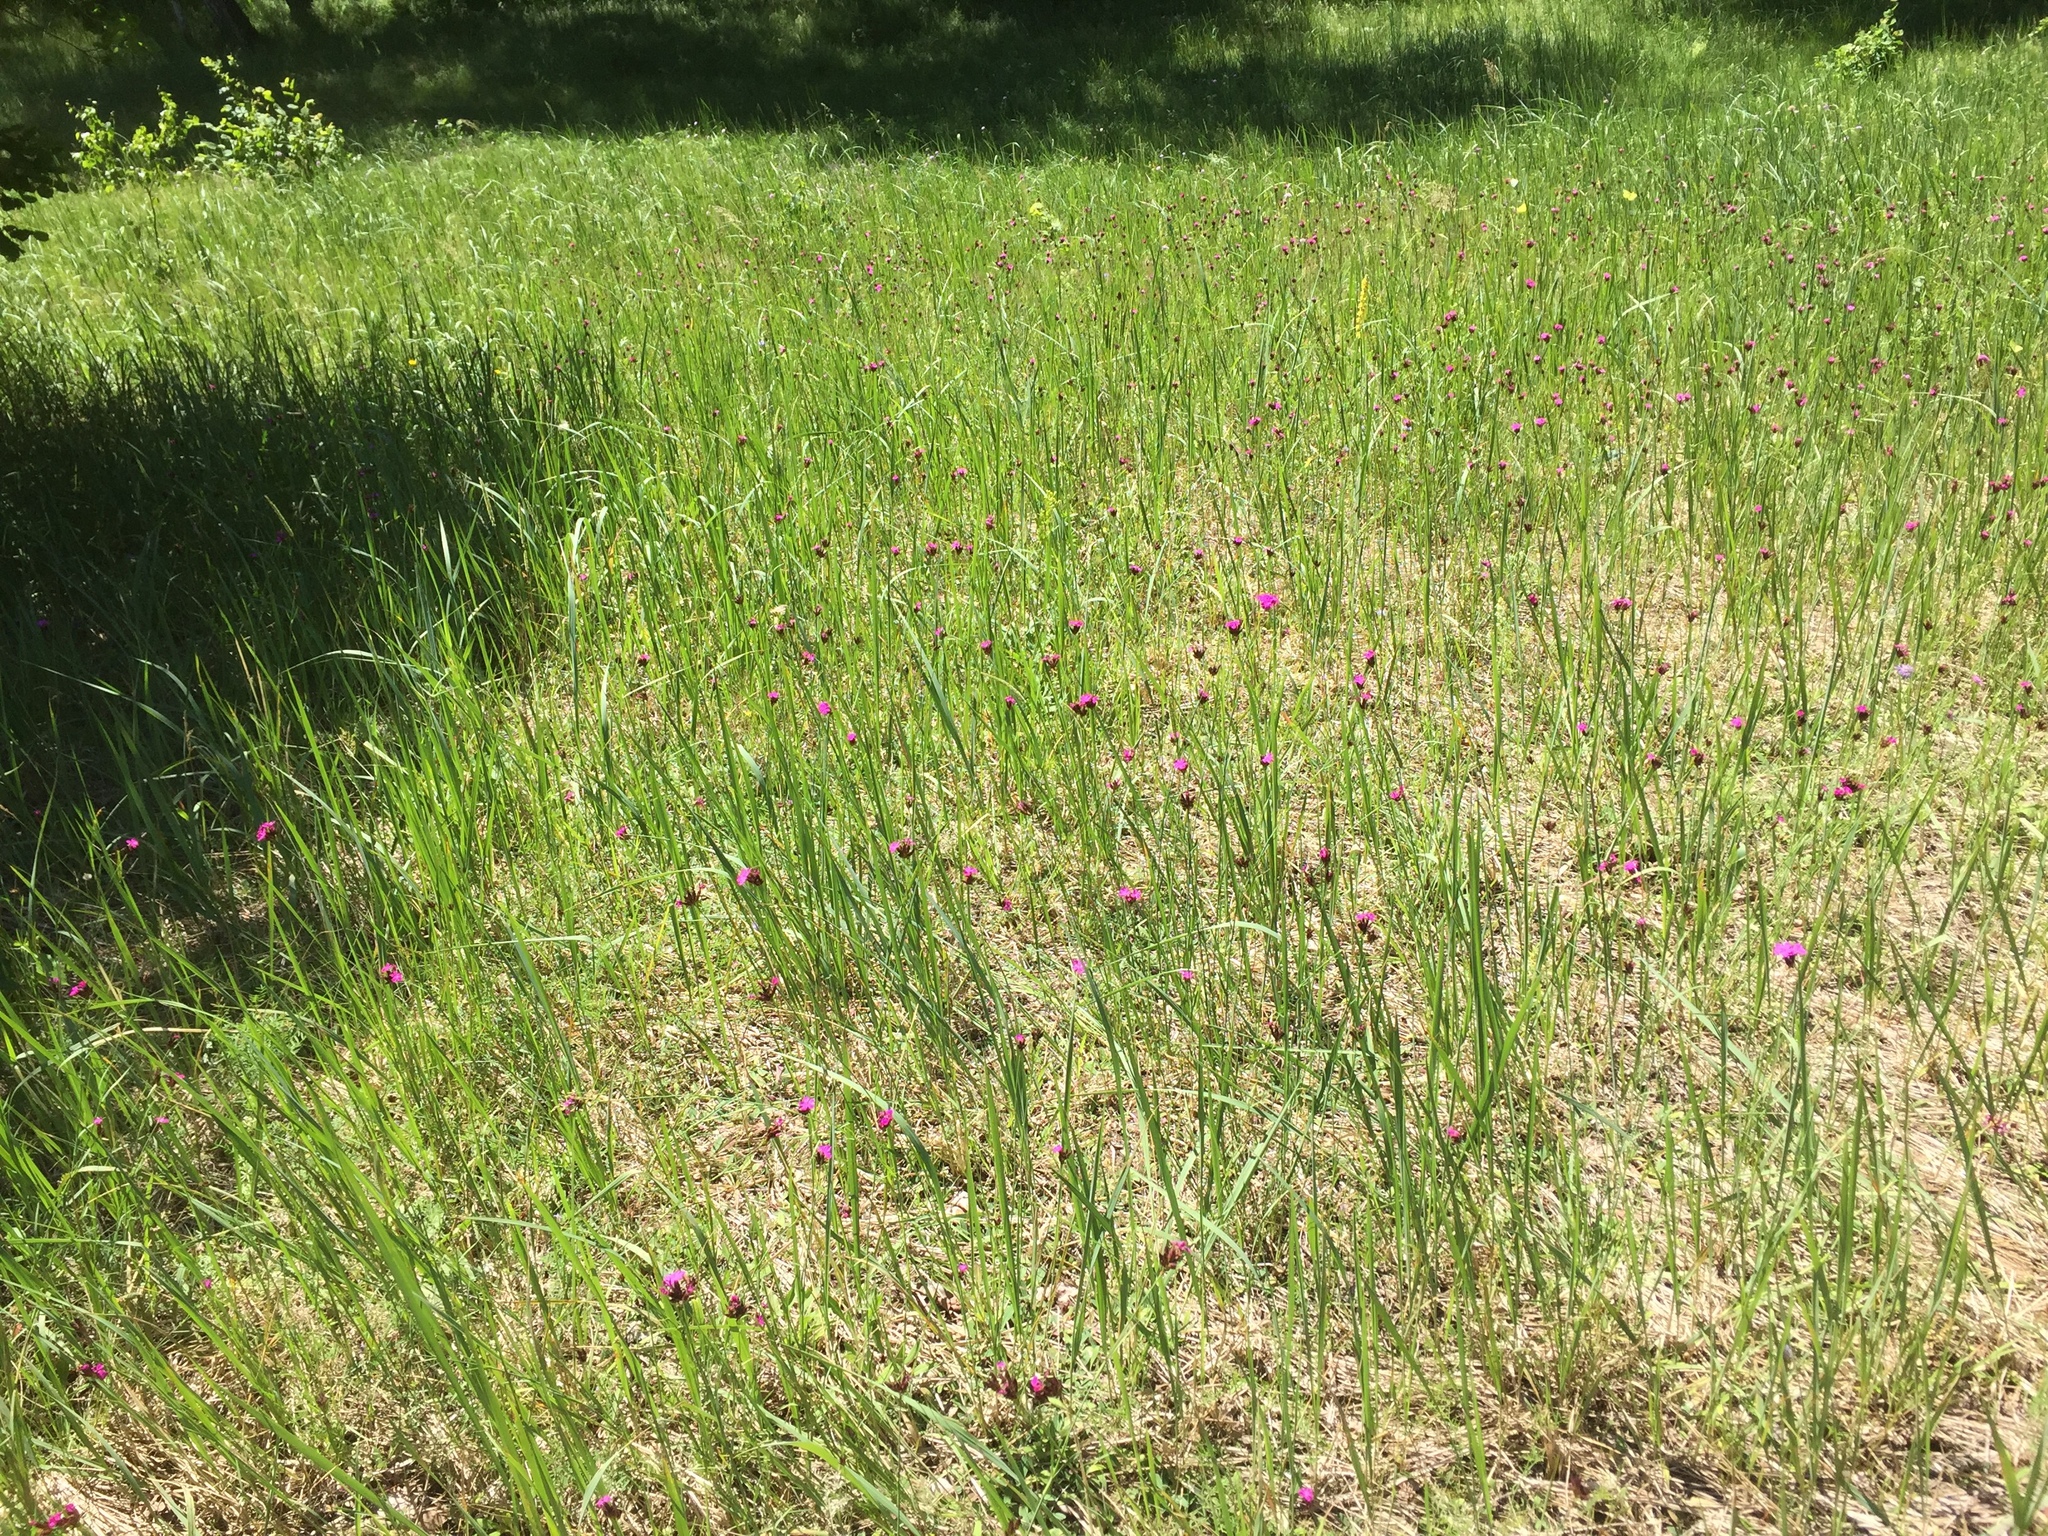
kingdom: Plantae
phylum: Tracheophyta
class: Magnoliopsida
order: Caryophyllales
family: Caryophyllaceae
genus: Dianthus
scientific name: Dianthus carthusianorum
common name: Carthusian pink
